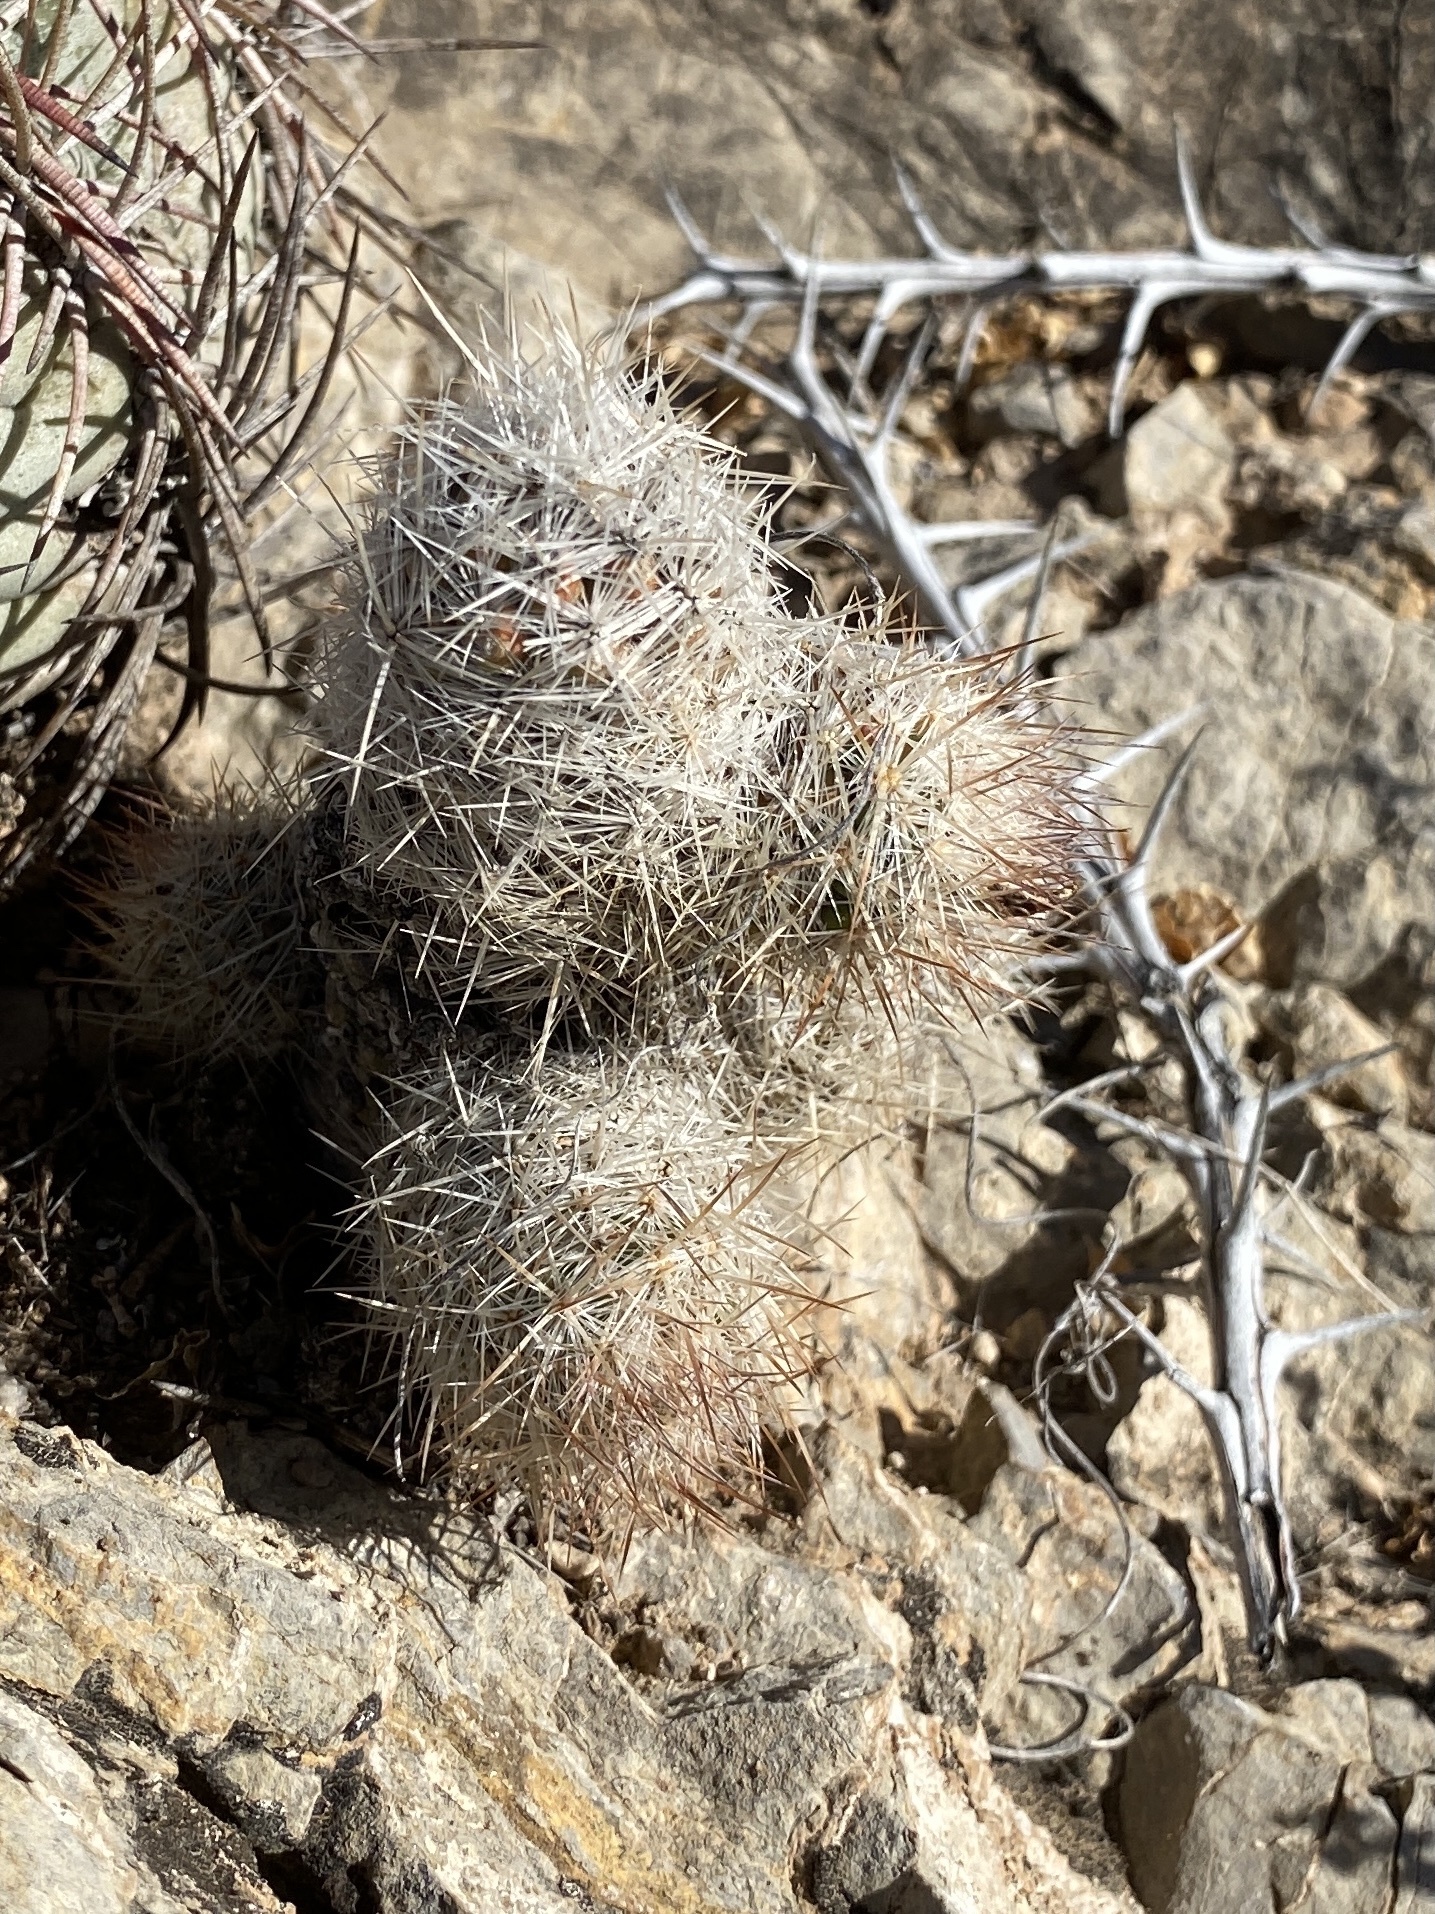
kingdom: Plantae
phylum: Tracheophyta
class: Magnoliopsida
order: Caryophyllales
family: Cactaceae
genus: Pelecyphora
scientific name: Pelecyphora tuberculosa
